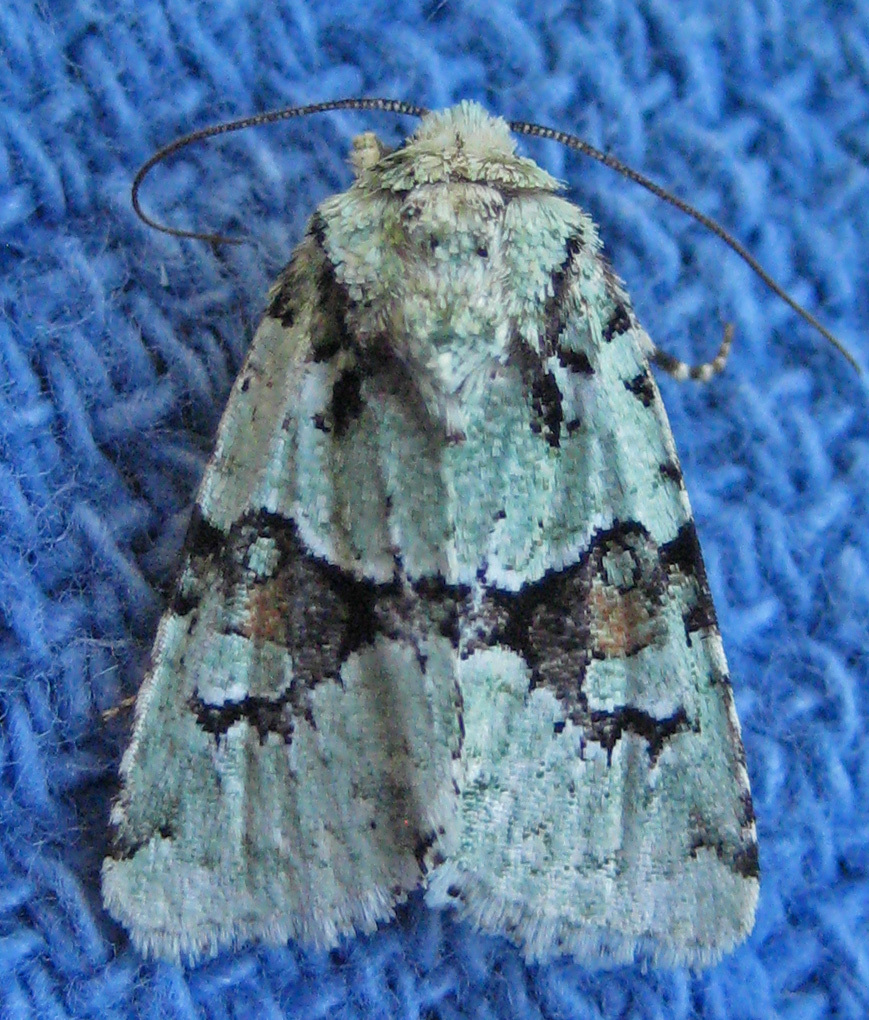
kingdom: Animalia
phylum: Arthropoda
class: Insecta
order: Lepidoptera
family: Noctuidae
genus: Lacinipolia
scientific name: Lacinipolia laudabilis
